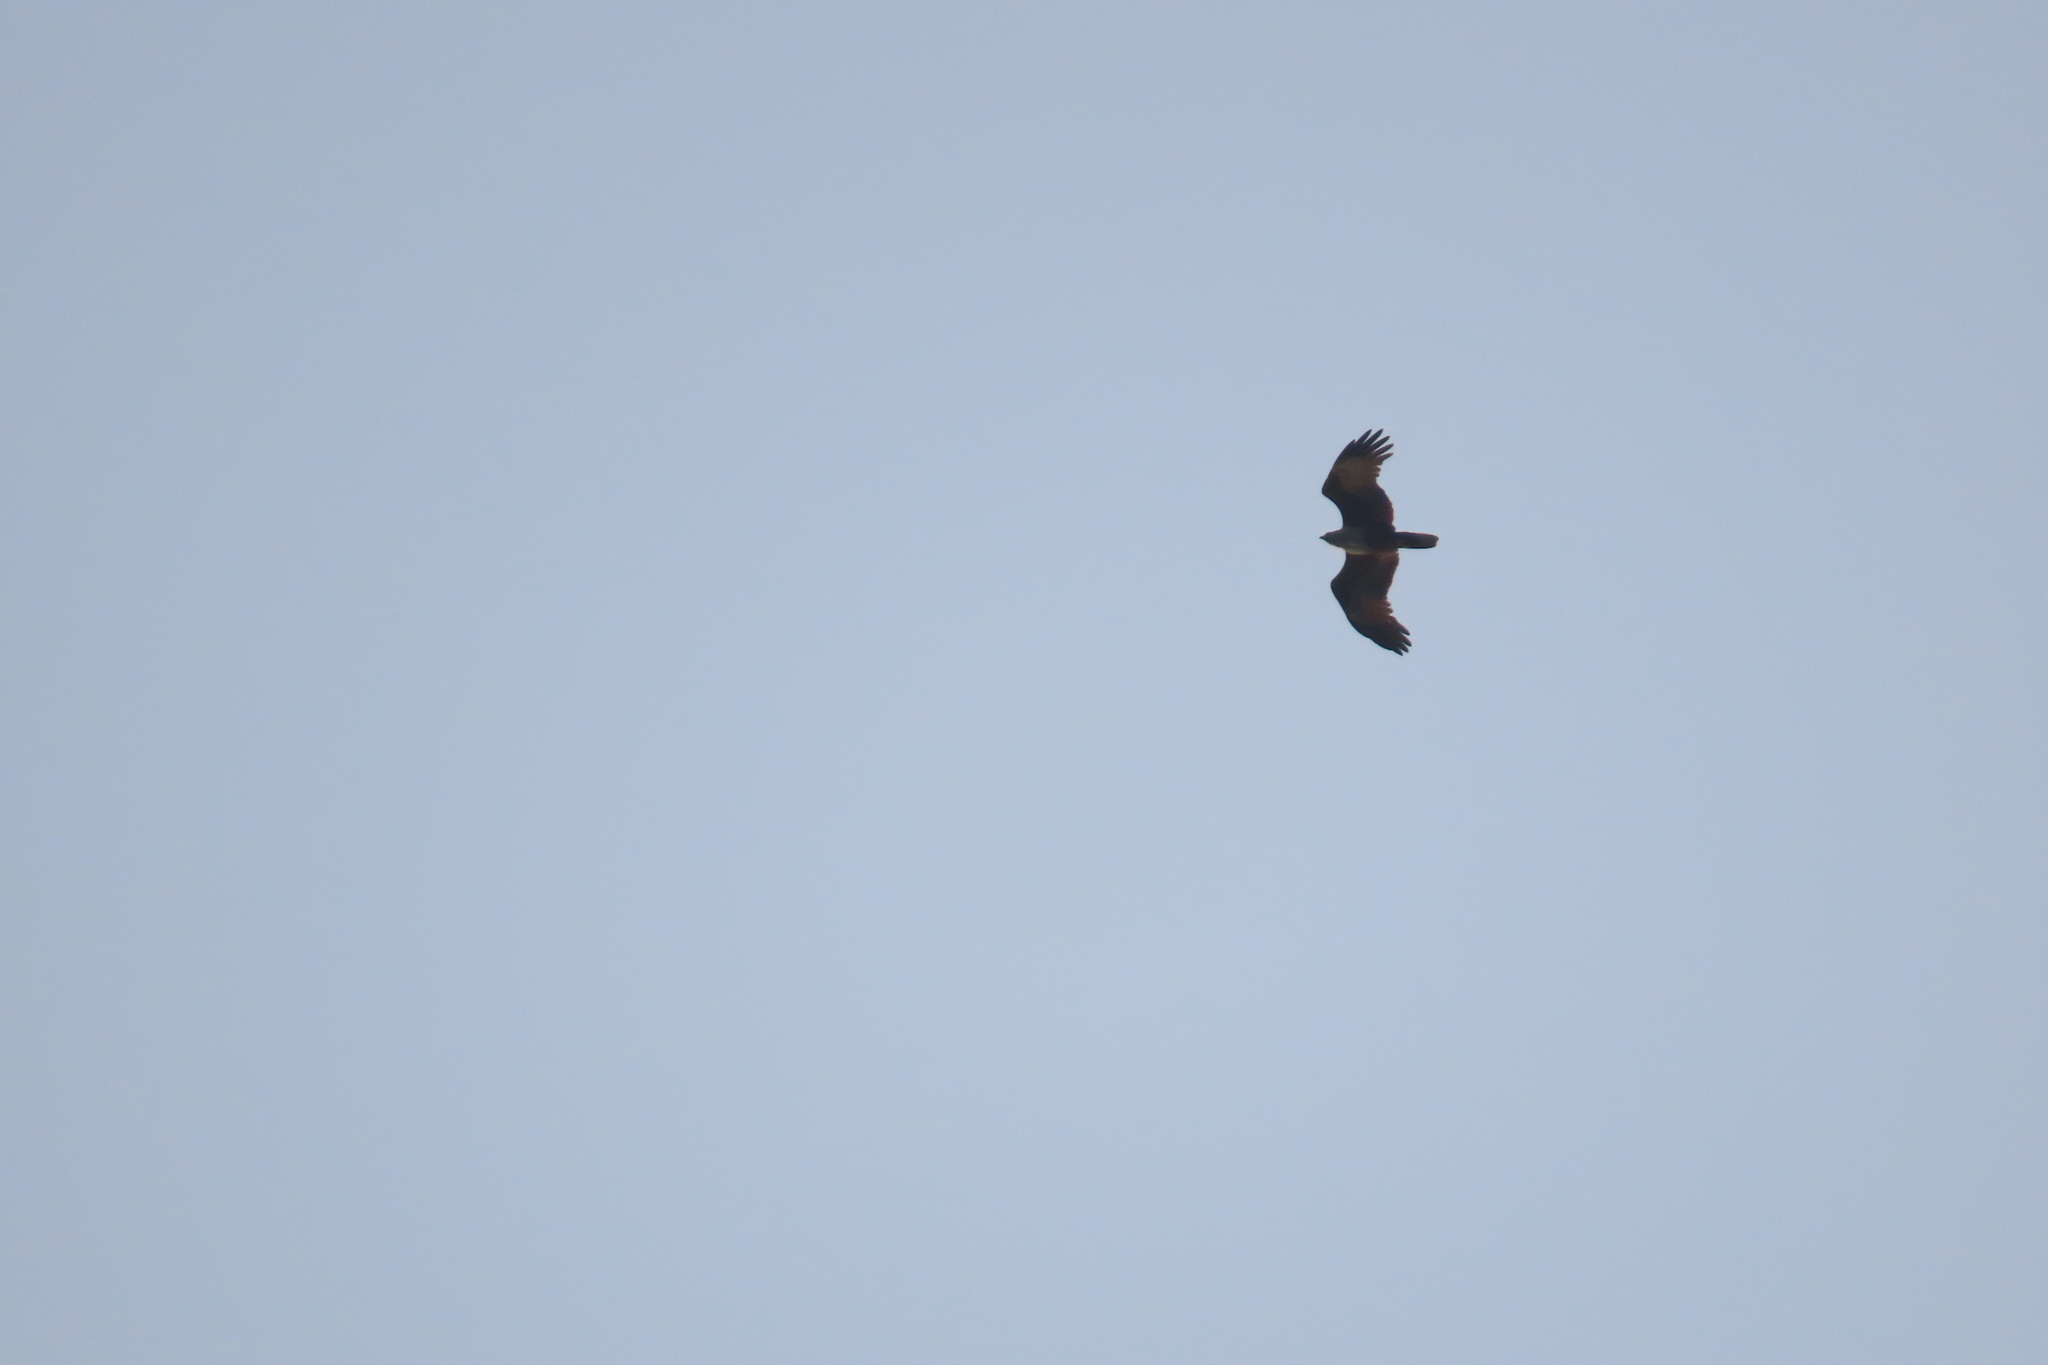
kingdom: Animalia
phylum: Chordata
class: Aves
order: Accipitriformes
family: Accipitridae
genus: Haliastur
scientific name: Haliastur indus
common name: Brahminy kite
